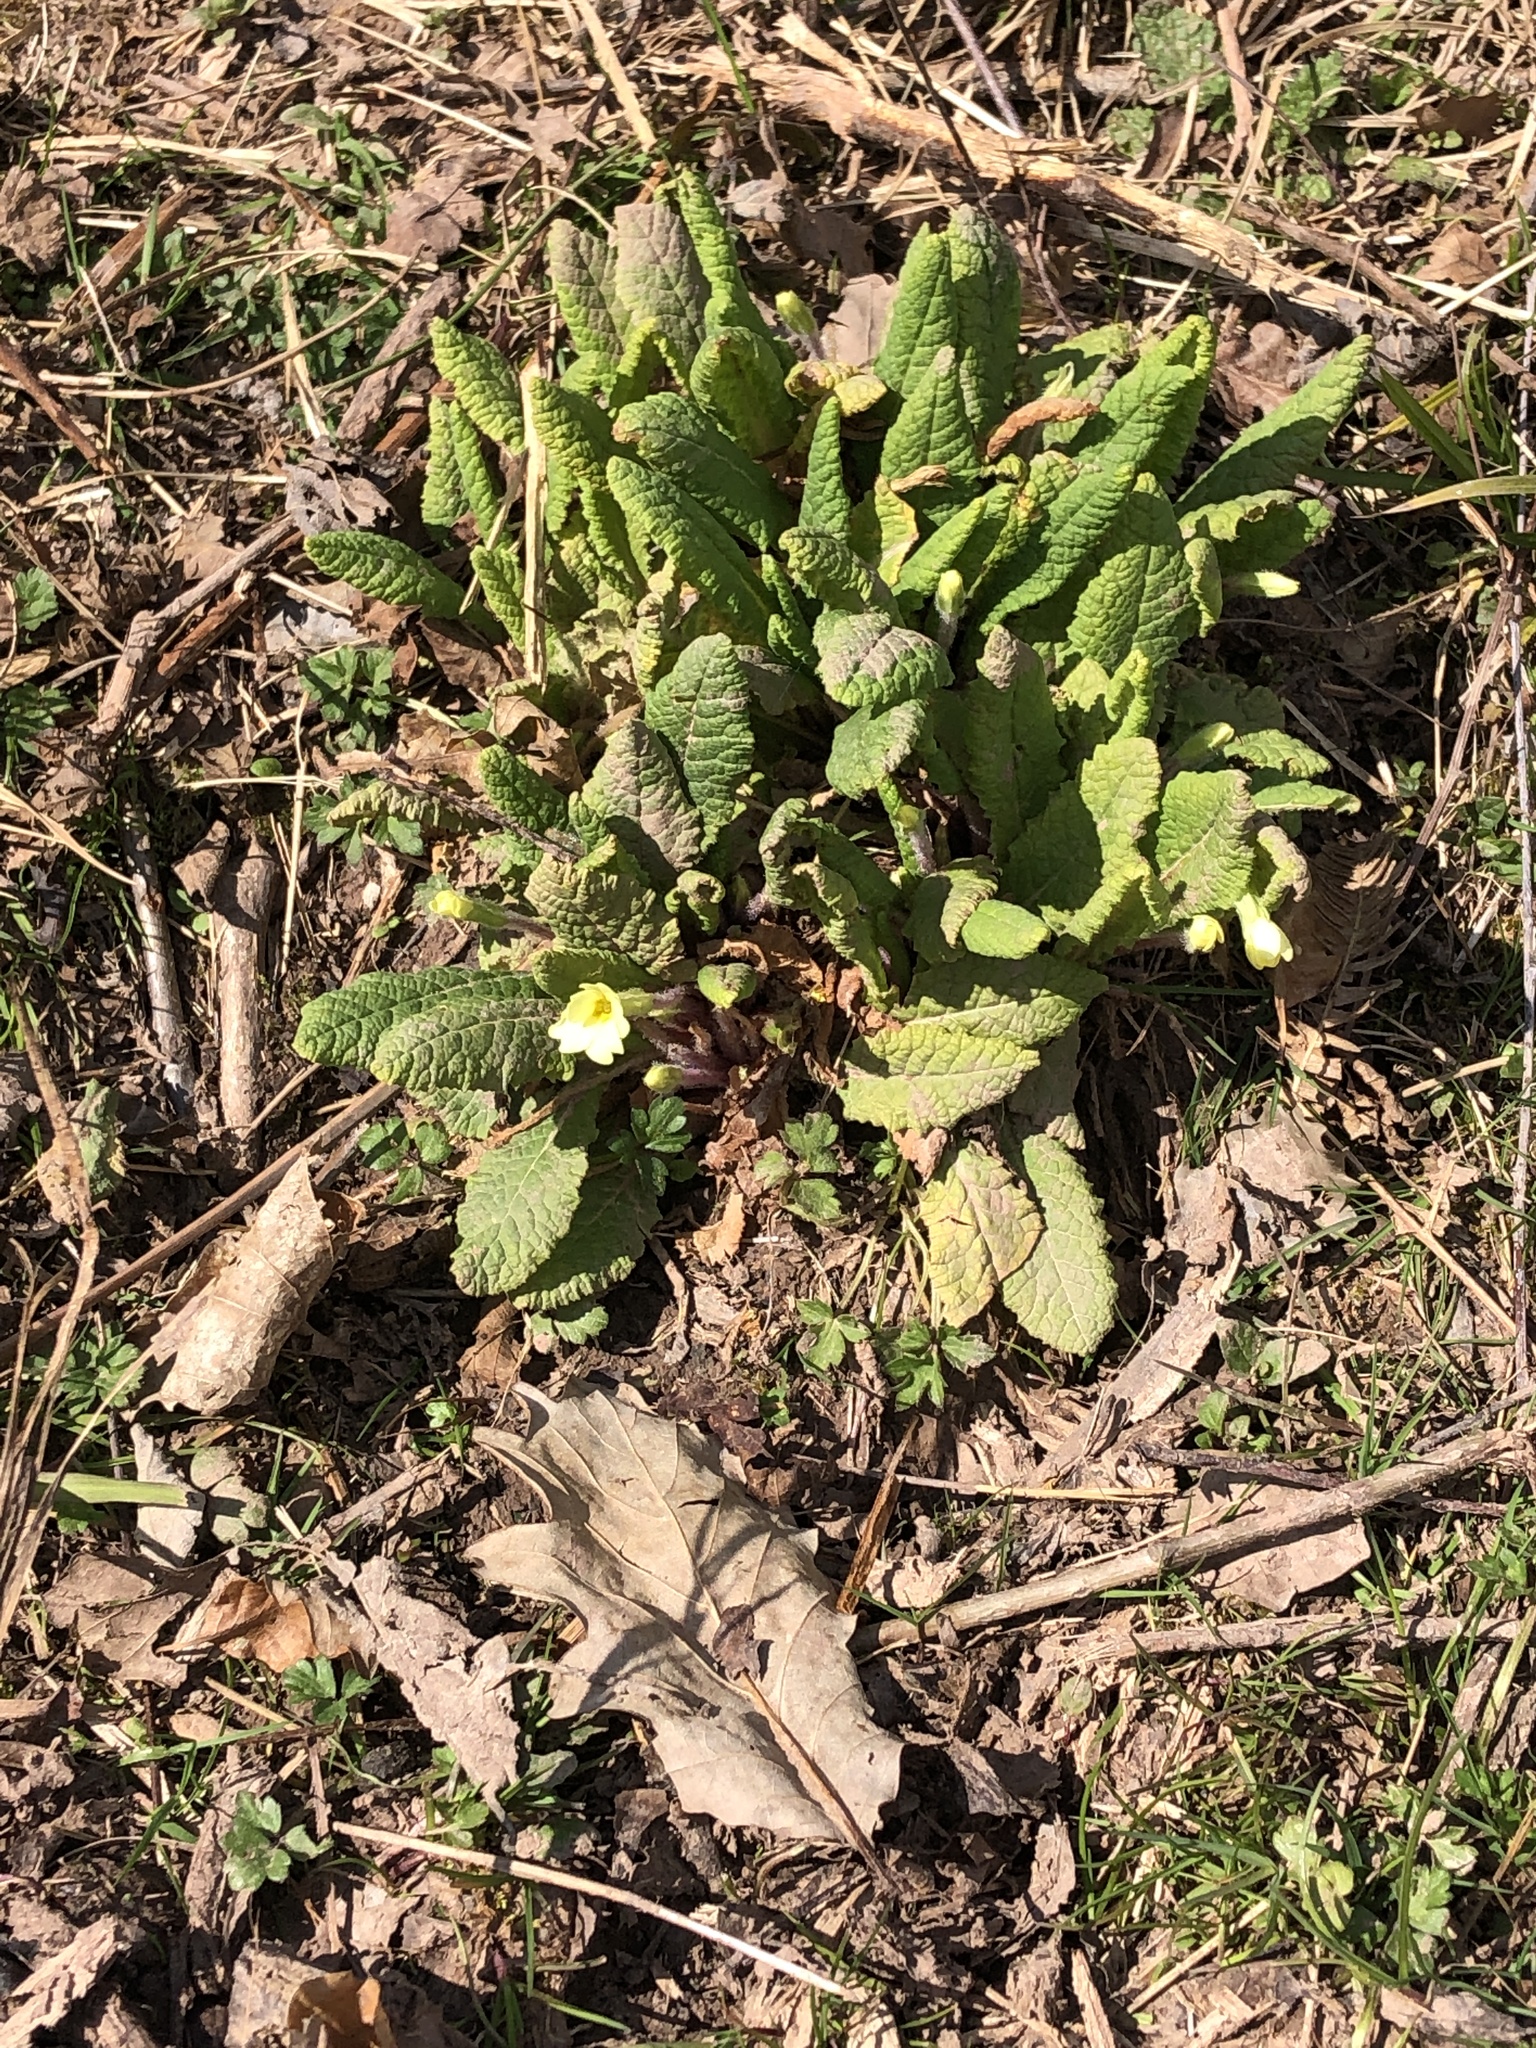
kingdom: Plantae
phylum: Tracheophyta
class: Magnoliopsida
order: Ericales
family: Primulaceae
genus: Primula
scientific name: Primula vulgaris
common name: Primrose
